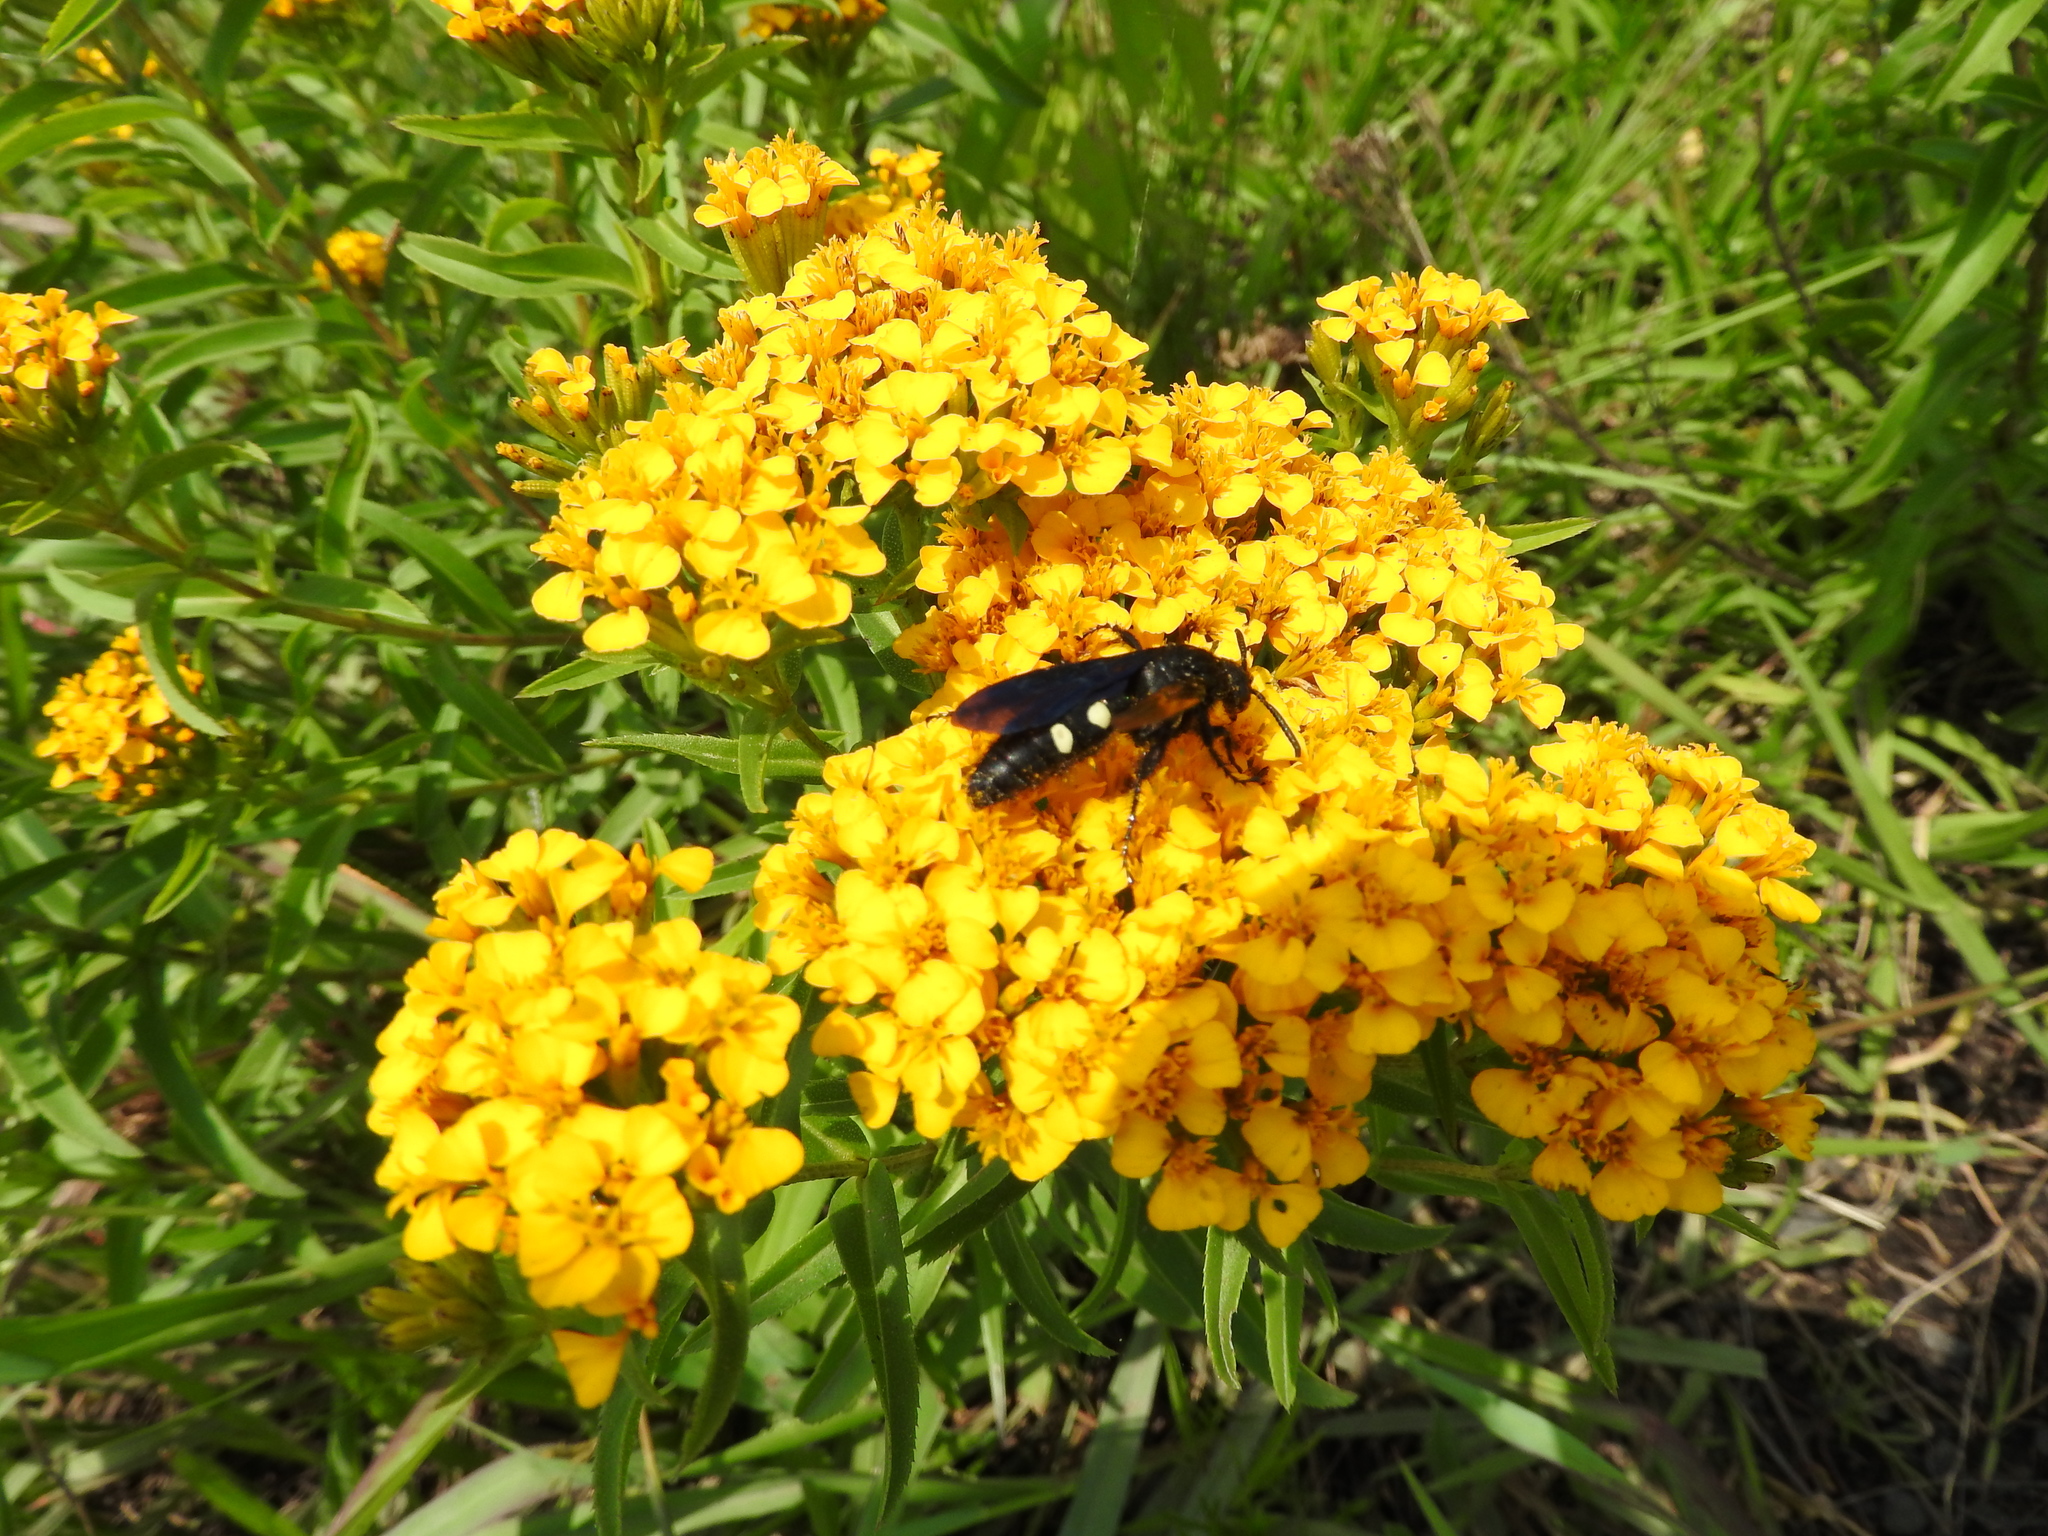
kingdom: Plantae
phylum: Tracheophyta
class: Magnoliopsida
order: Asterales
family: Asteraceae
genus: Tagetes
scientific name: Tagetes lucida
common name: Sweetscented marigold
